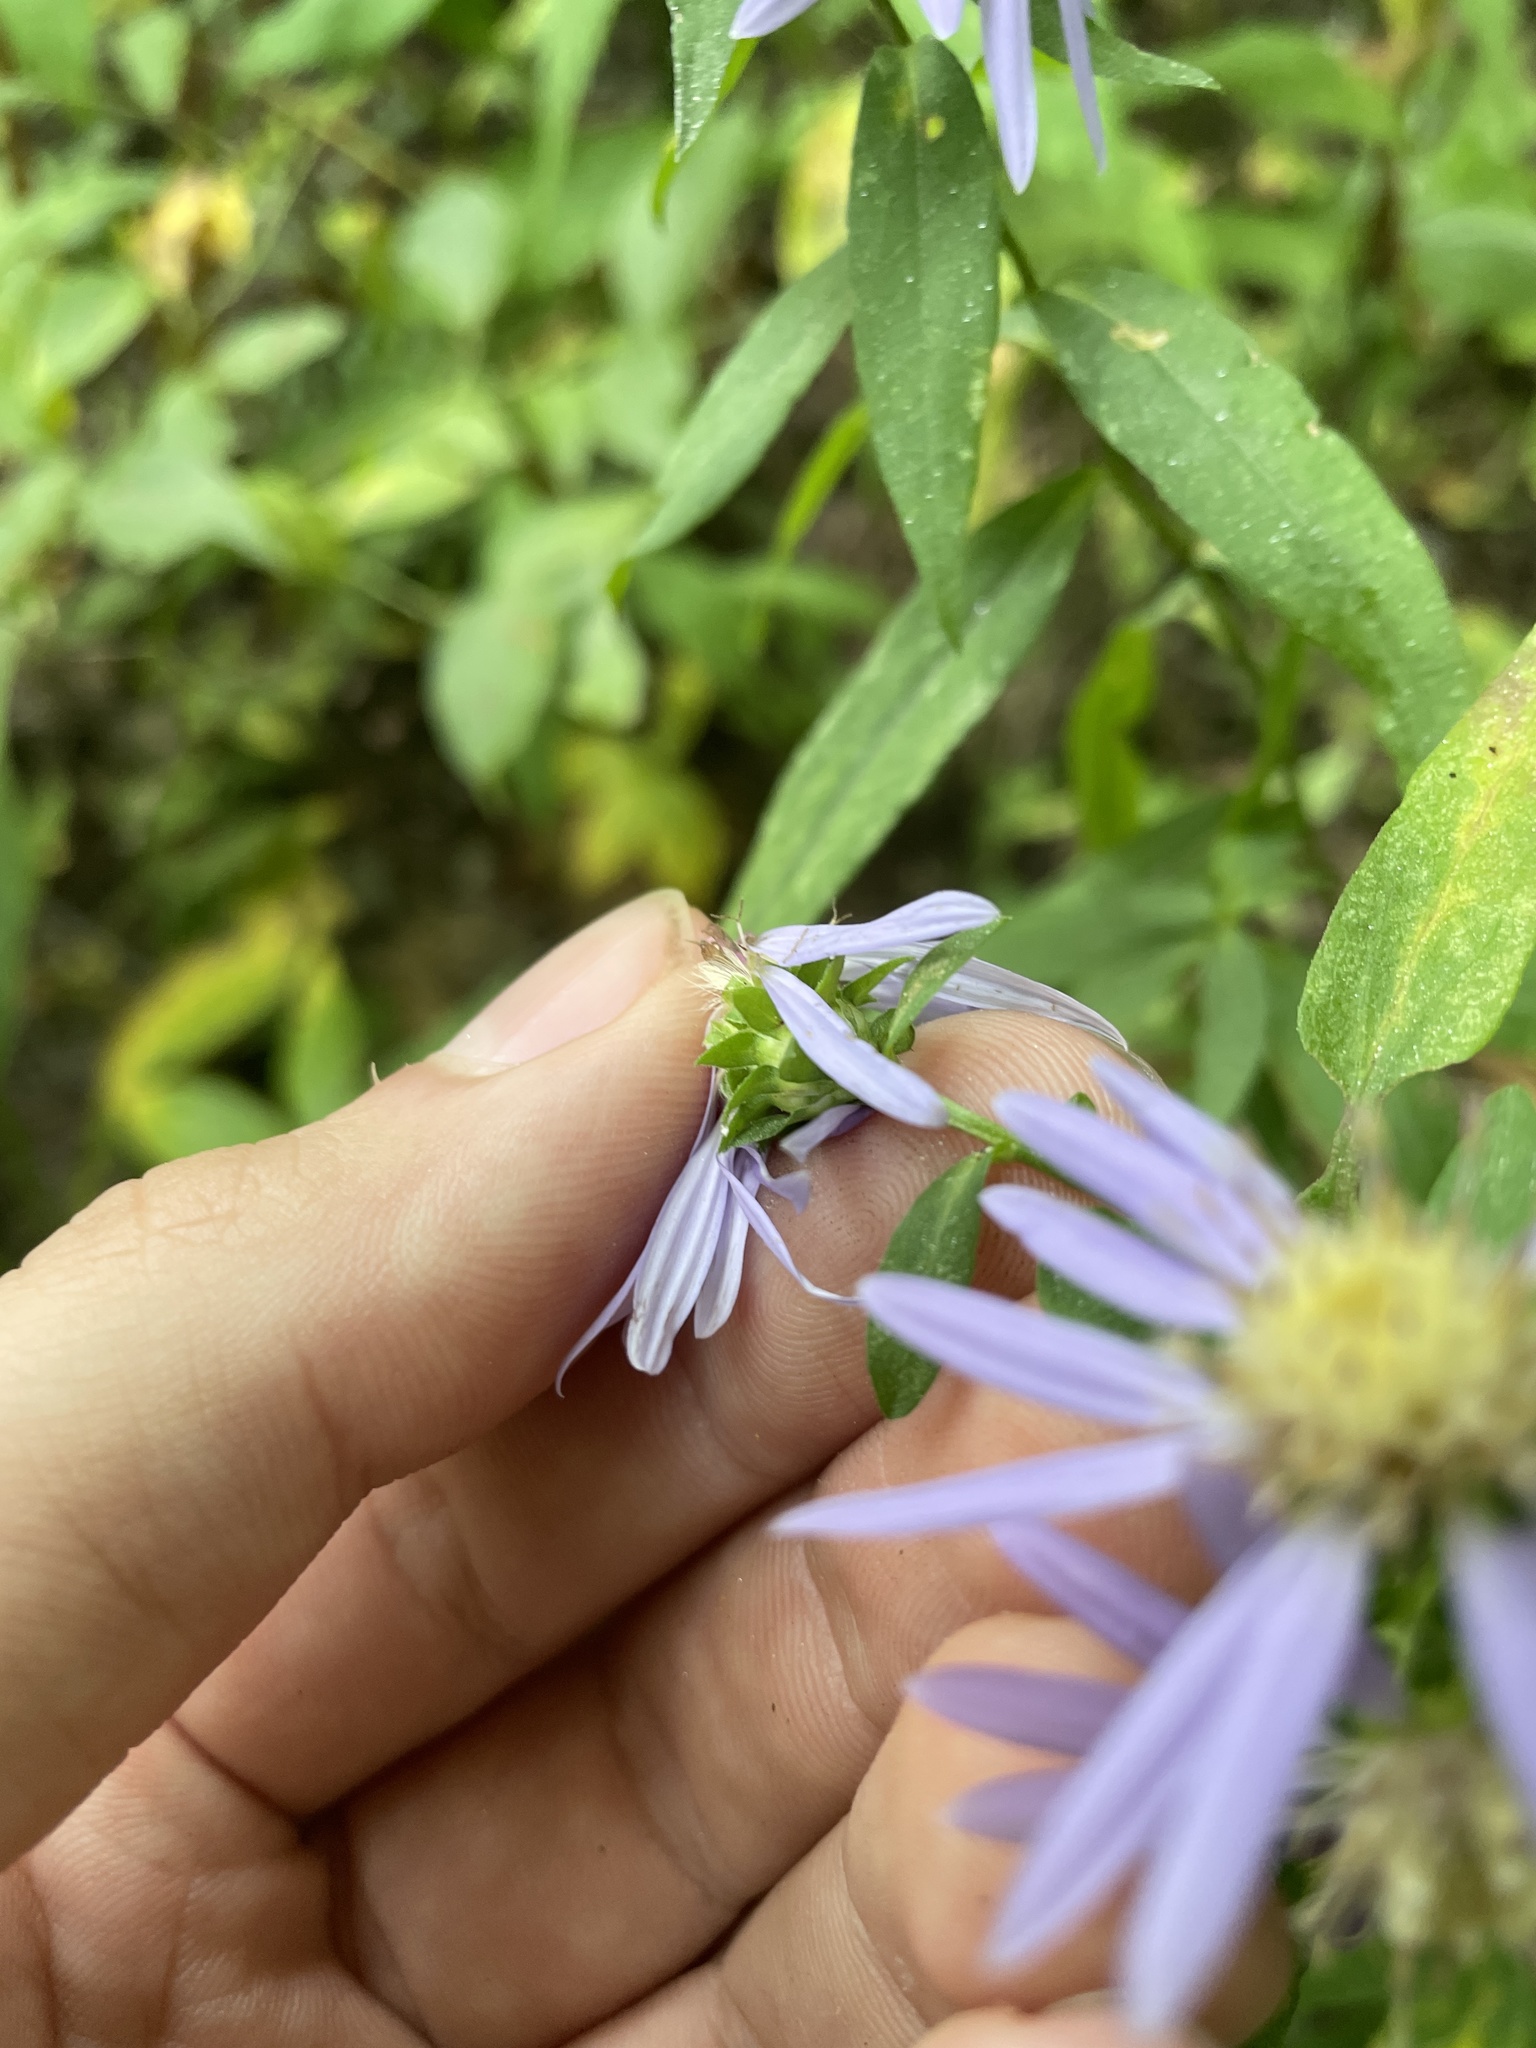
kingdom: Plantae
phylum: Tracheophyta
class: Magnoliopsida
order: Asterales
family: Asteraceae
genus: Symphyotrichum
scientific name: Symphyotrichum retroflexum
